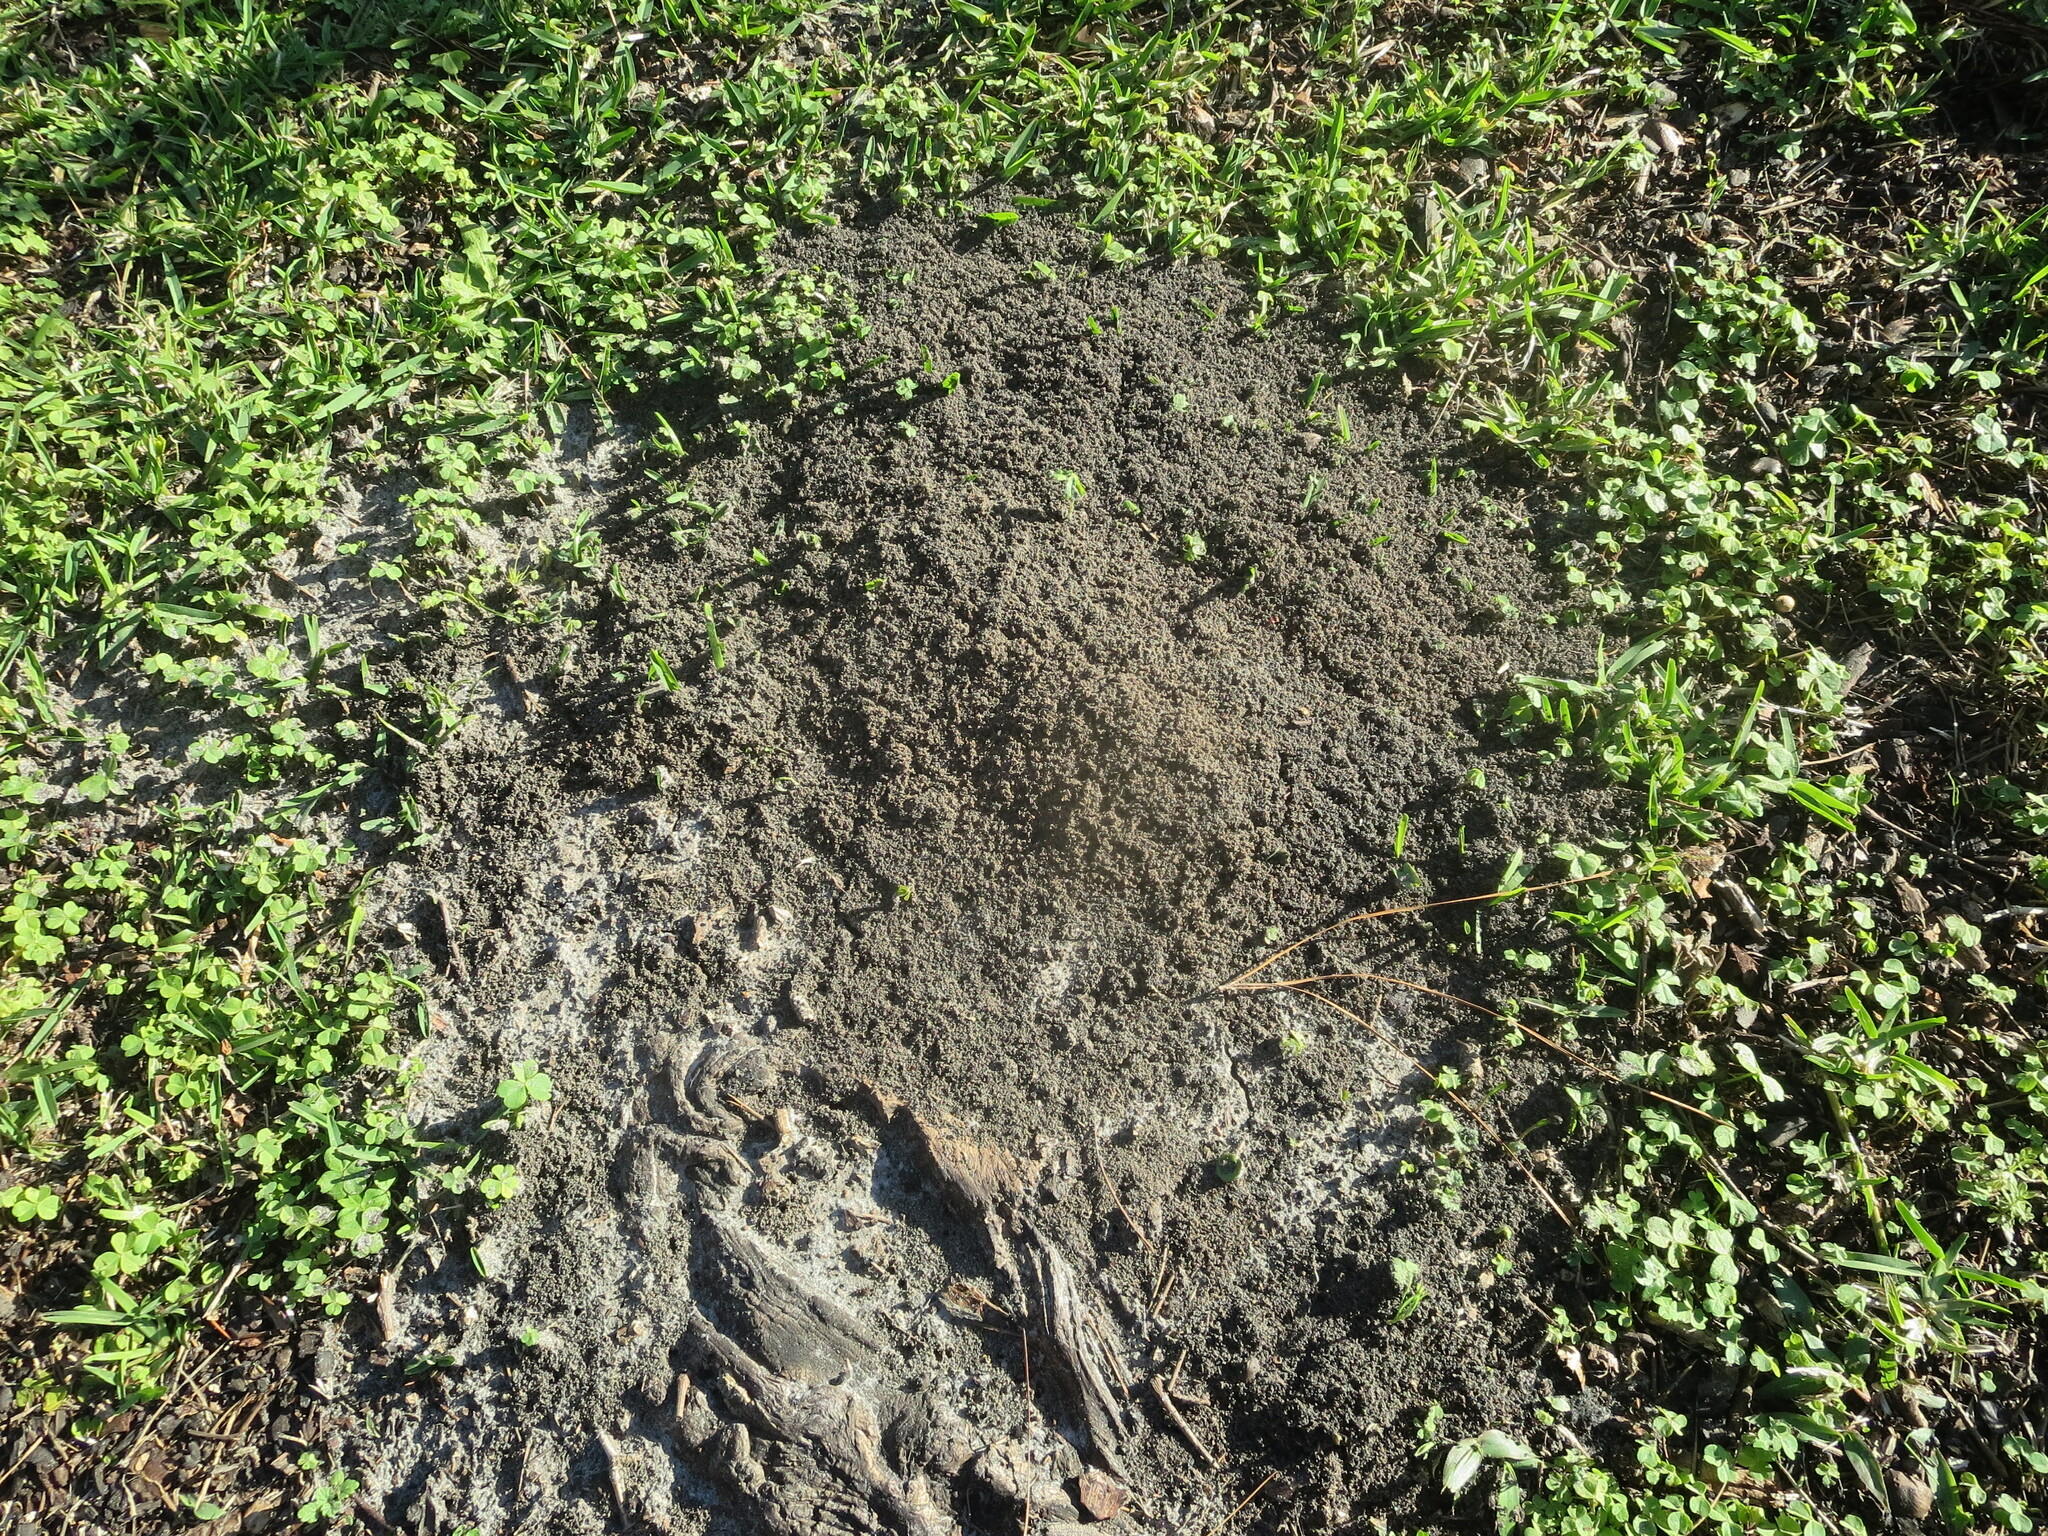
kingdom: Animalia
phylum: Arthropoda
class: Insecta
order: Hymenoptera
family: Formicidae
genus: Solenopsis
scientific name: Solenopsis invicta
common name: Red imported fire ant
